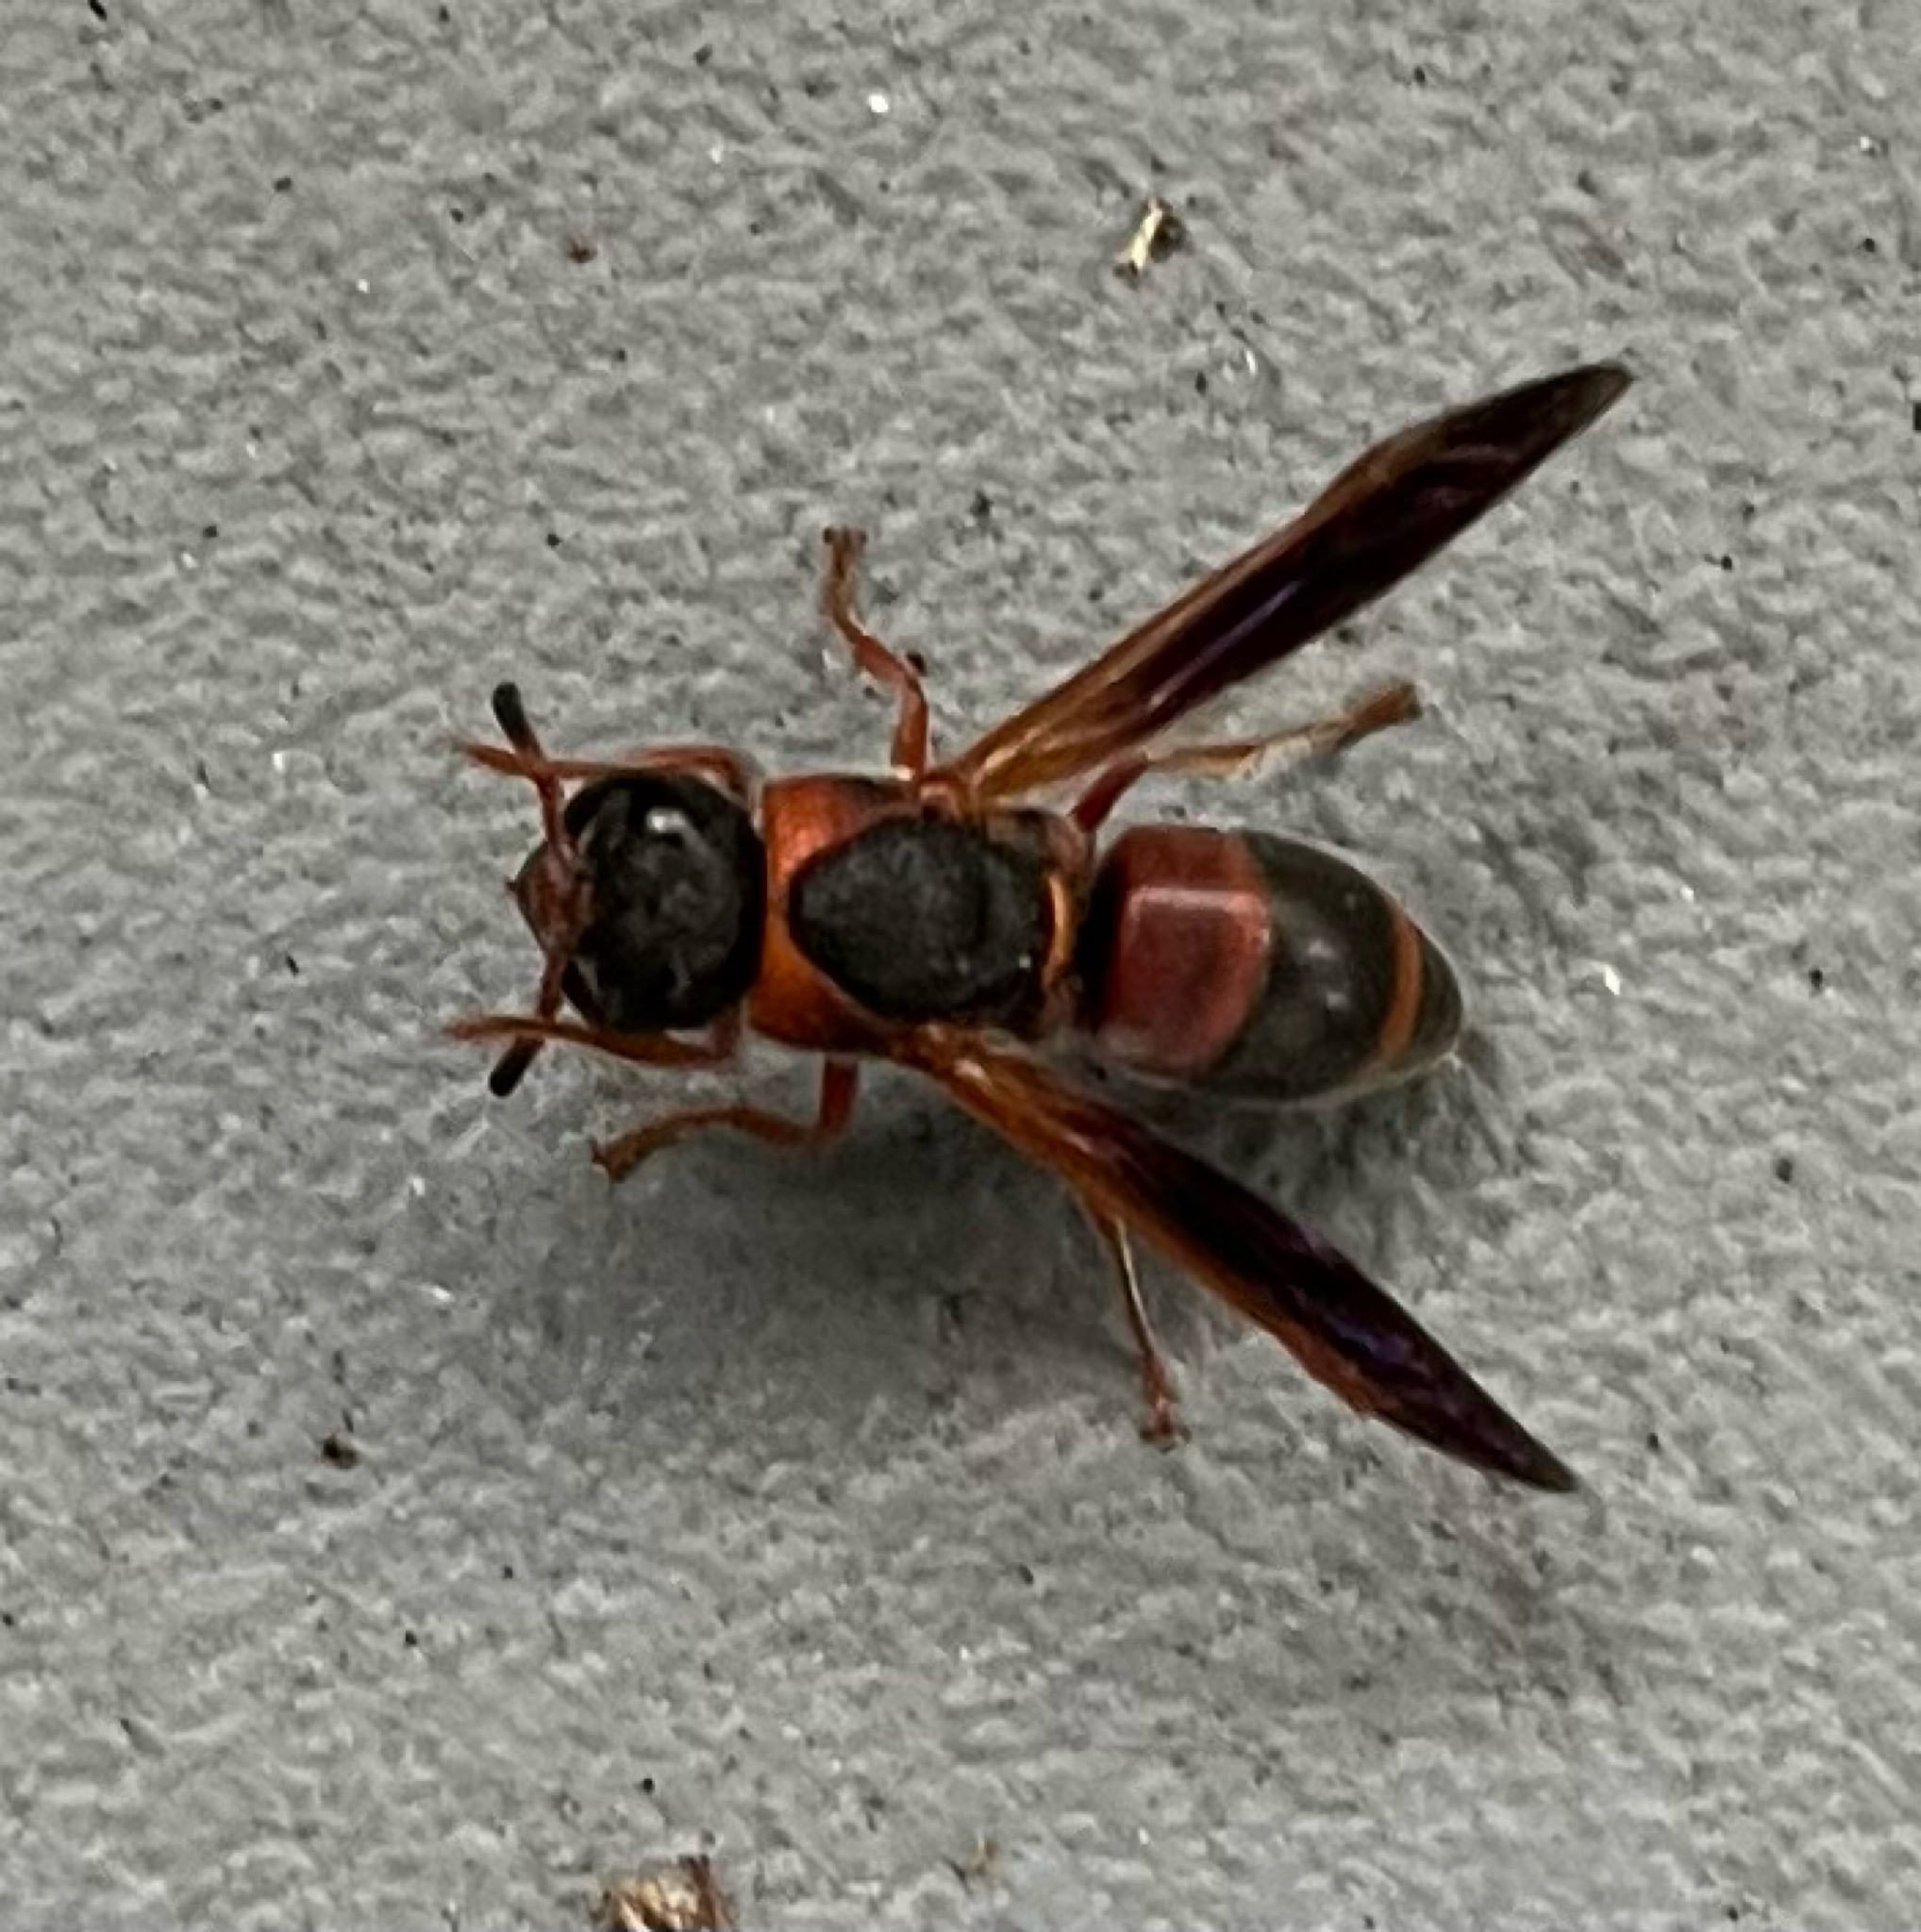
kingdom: Animalia
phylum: Arthropoda
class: Insecta
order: Hymenoptera
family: Eumenidae
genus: Pachodynerus
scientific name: Pachodynerus erynnis
